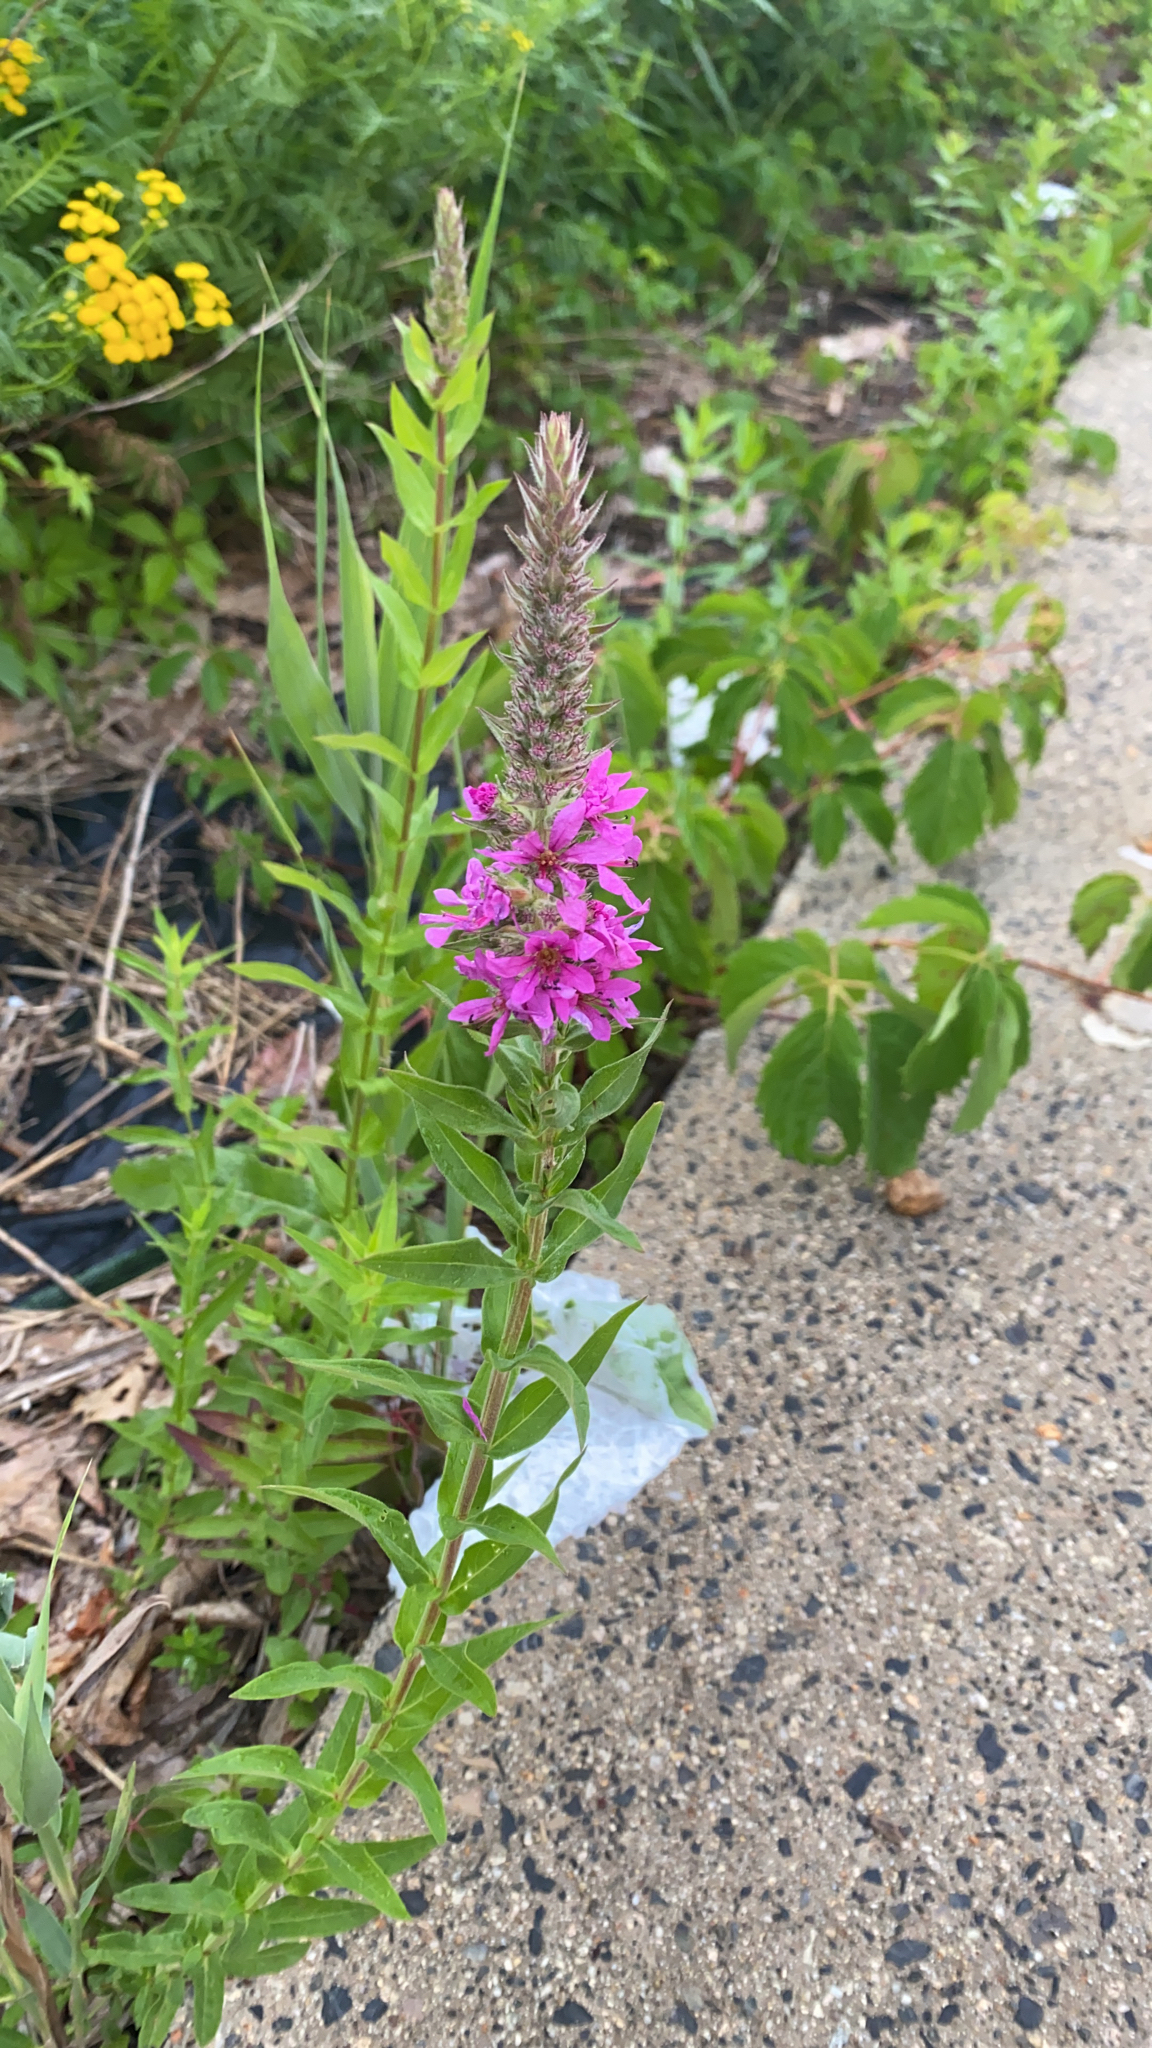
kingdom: Plantae
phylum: Tracheophyta
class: Magnoliopsida
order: Myrtales
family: Lythraceae
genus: Lythrum
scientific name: Lythrum salicaria
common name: Purple loosestrife
